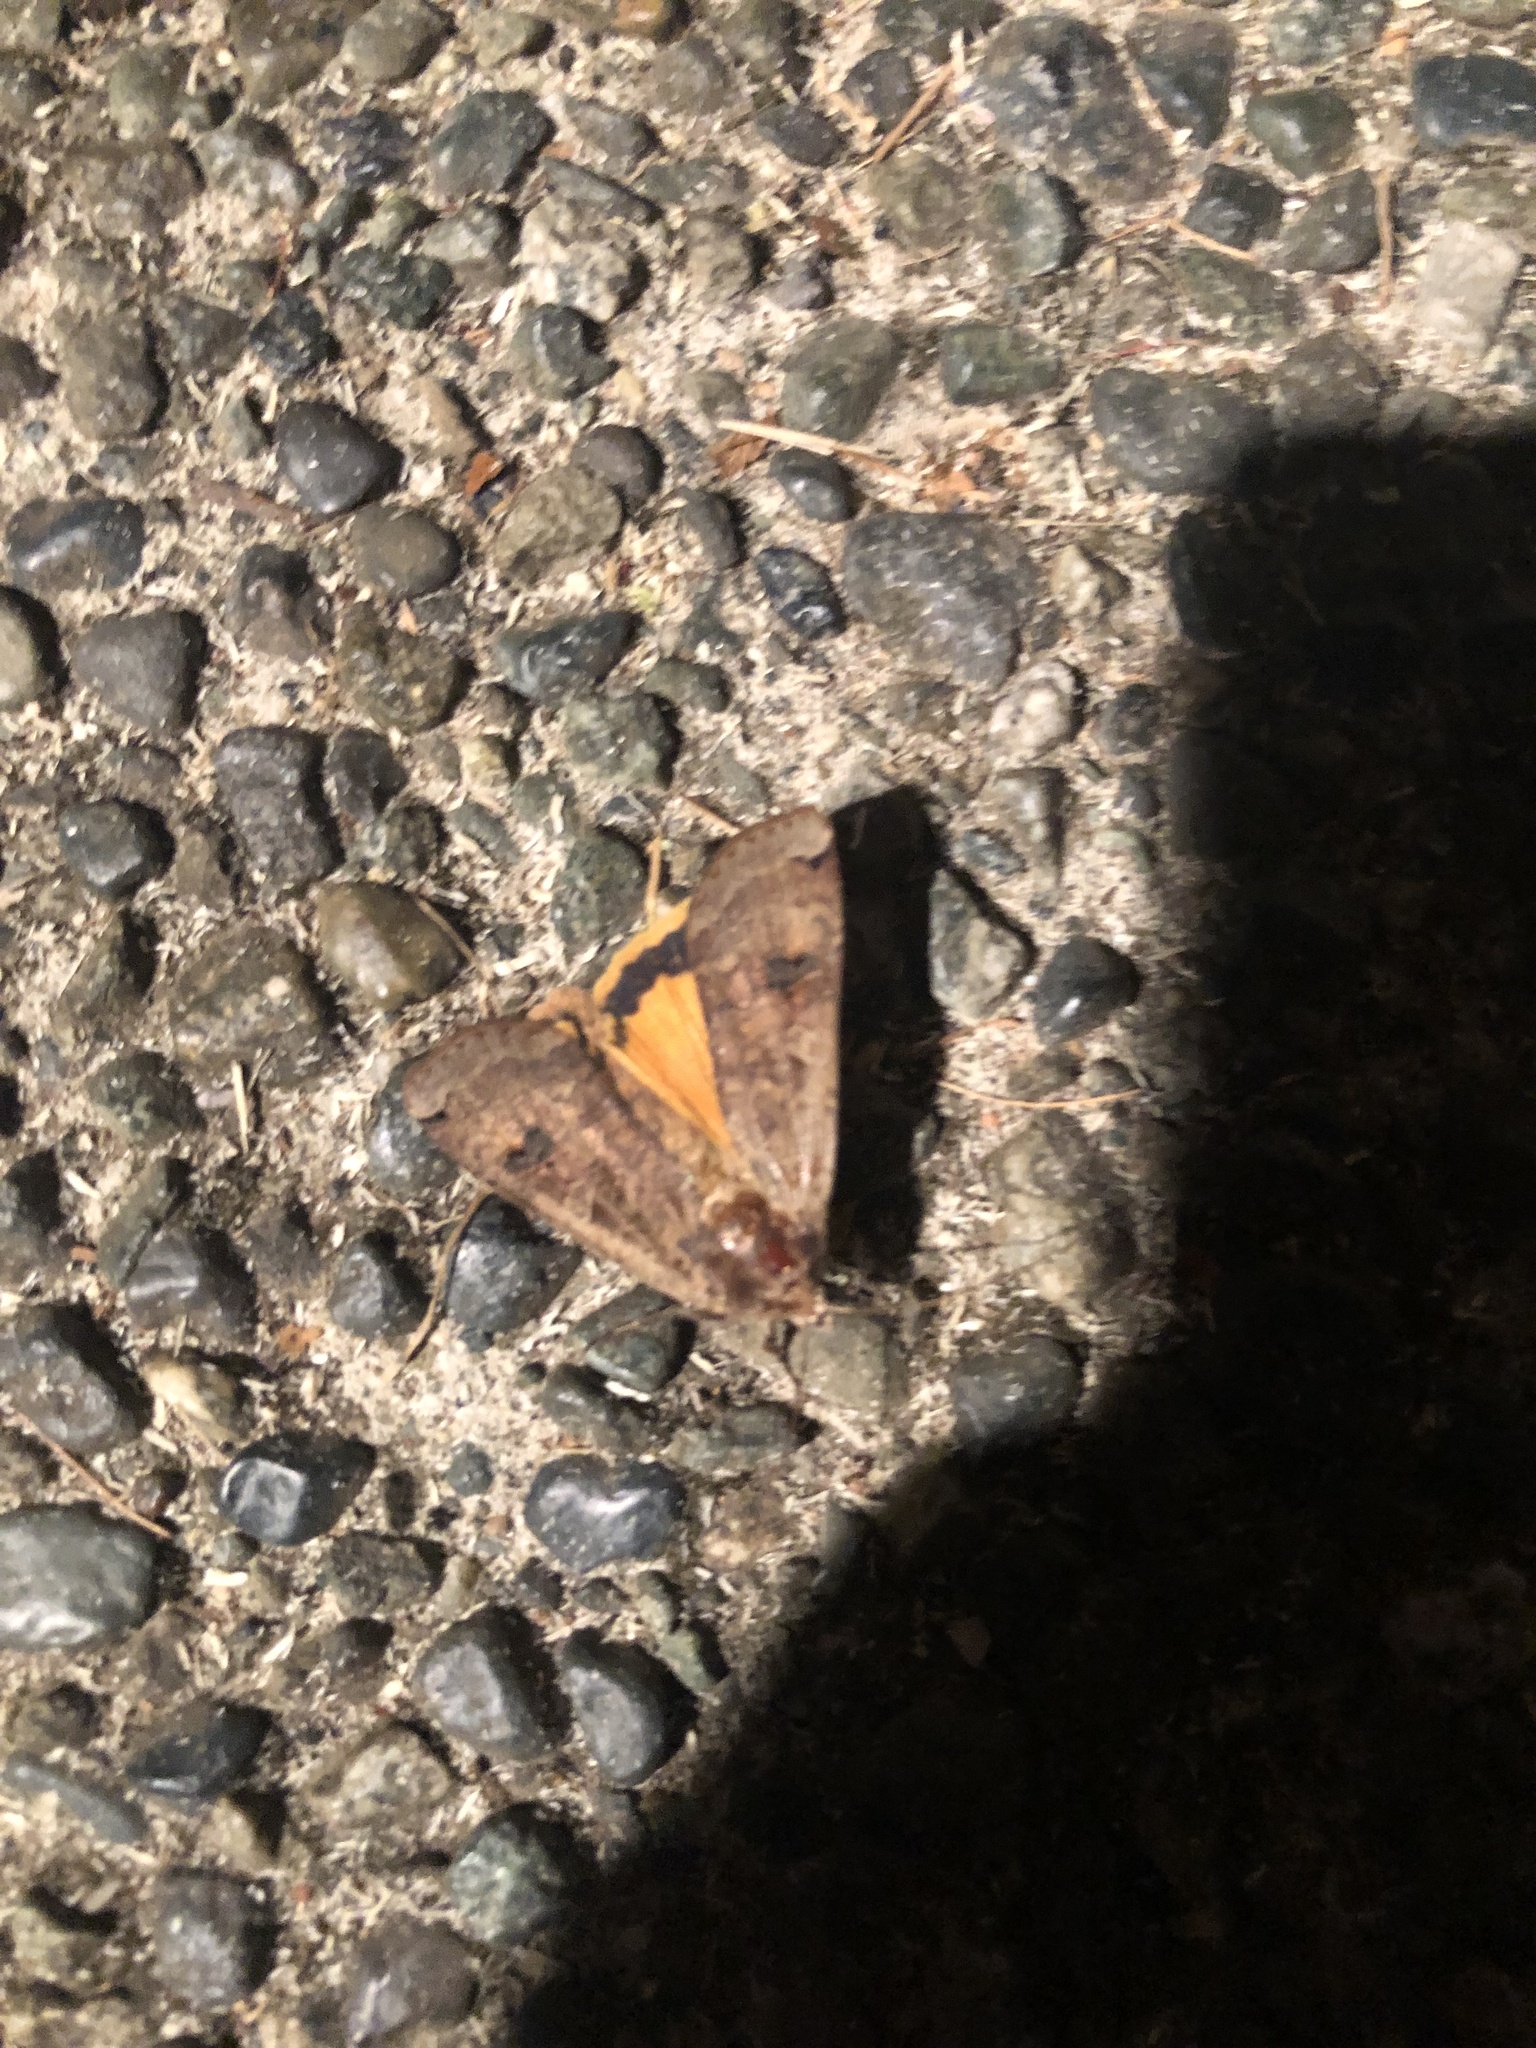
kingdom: Animalia
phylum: Arthropoda
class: Insecta
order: Lepidoptera
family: Noctuidae
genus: Noctua
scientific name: Noctua pronuba
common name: Large yellow underwing
